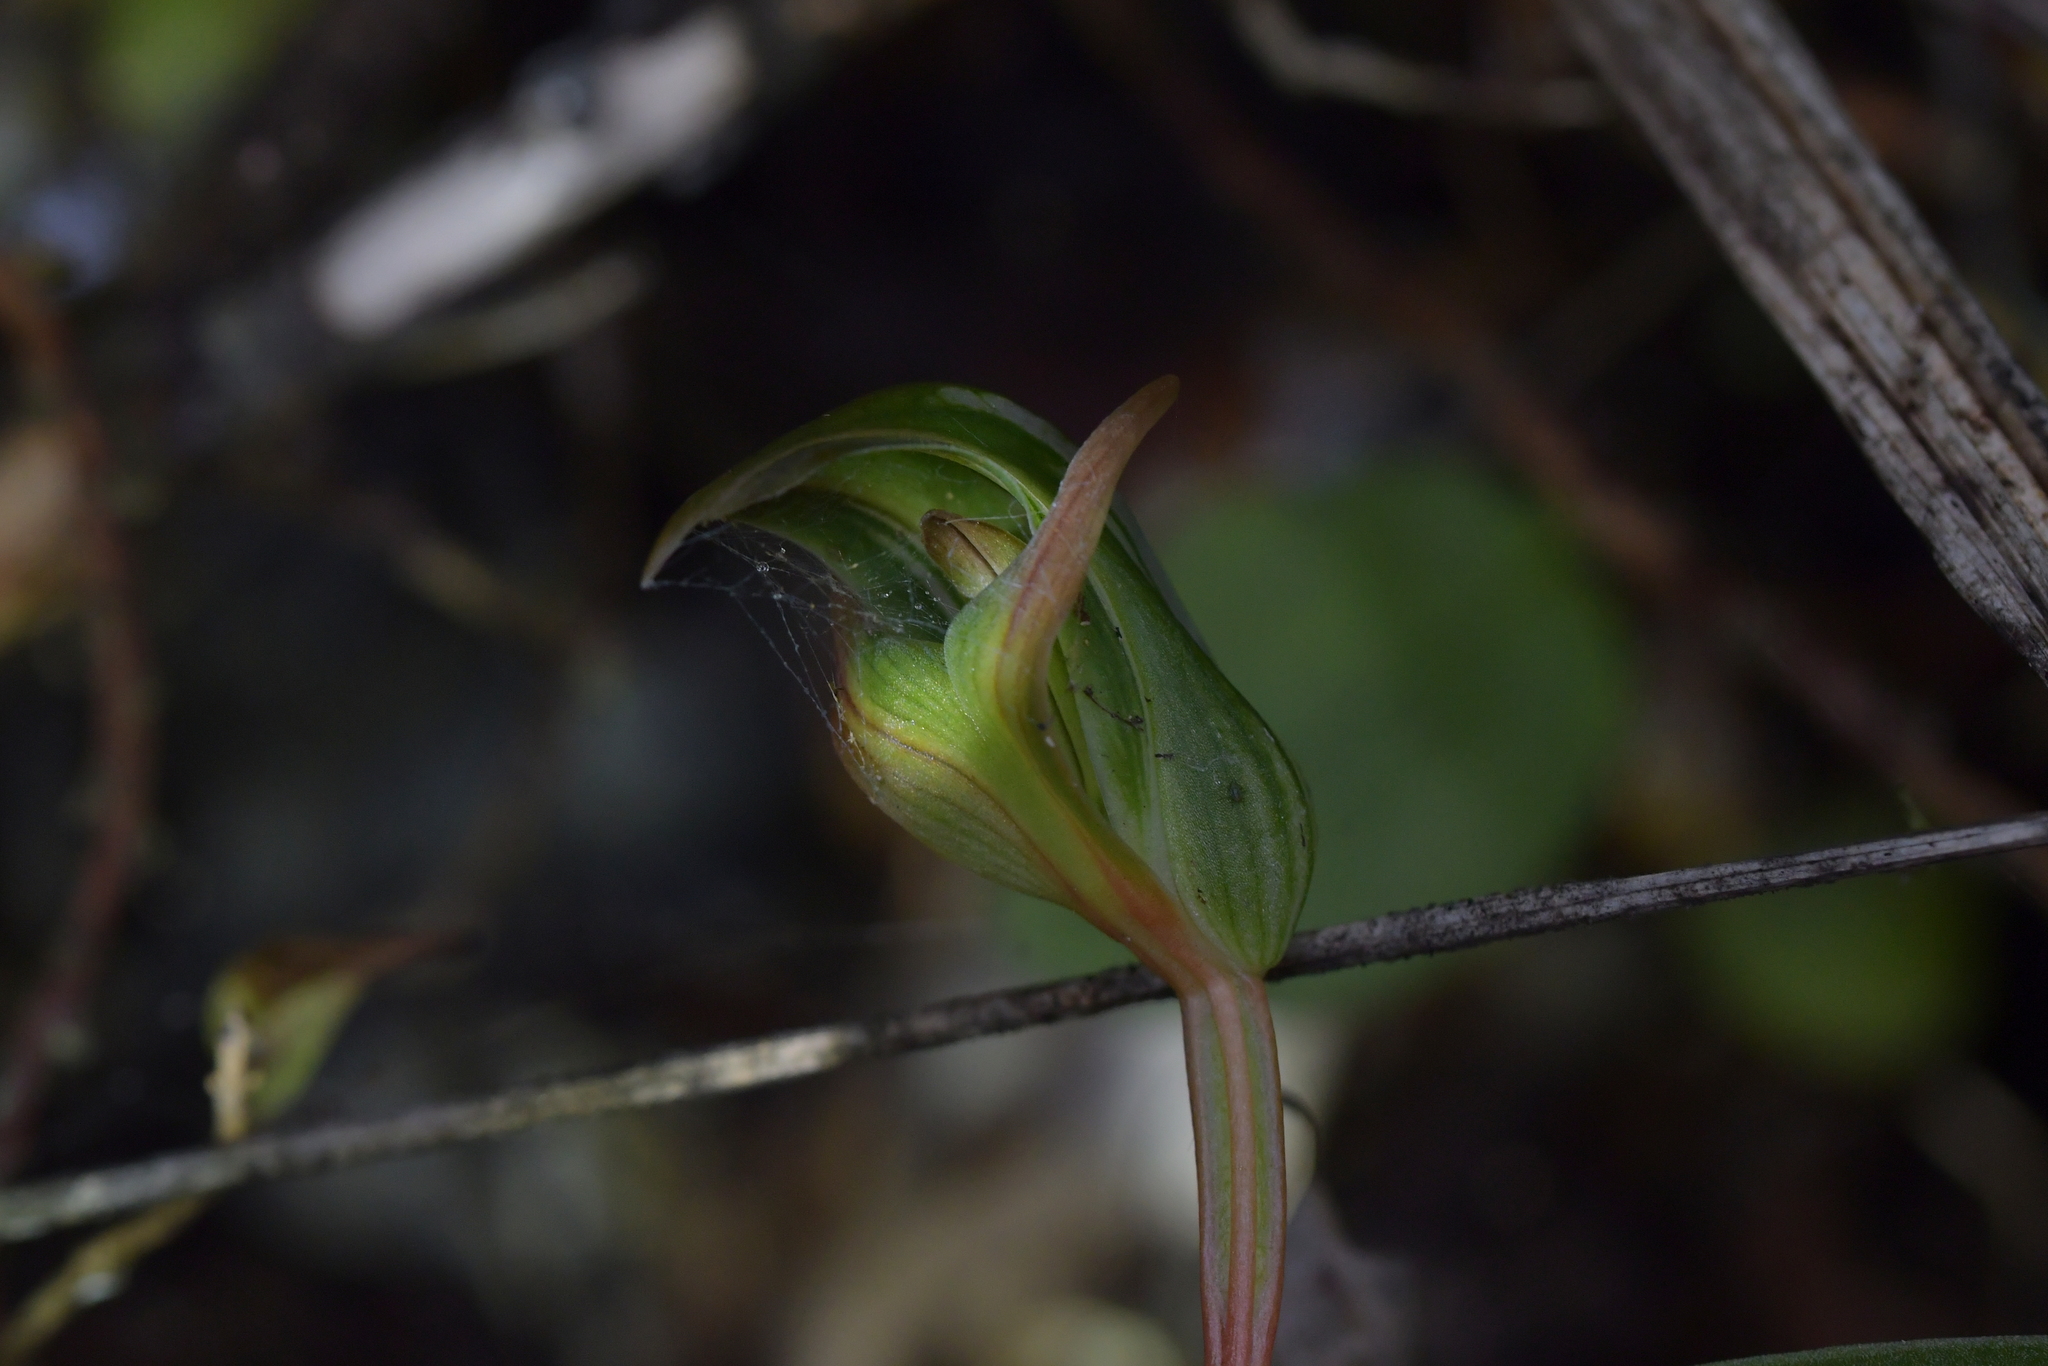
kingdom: Plantae
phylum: Tracheophyta
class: Liliopsida
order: Asparagales
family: Orchidaceae
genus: Pterostylis
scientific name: Pterostylis auriculata
